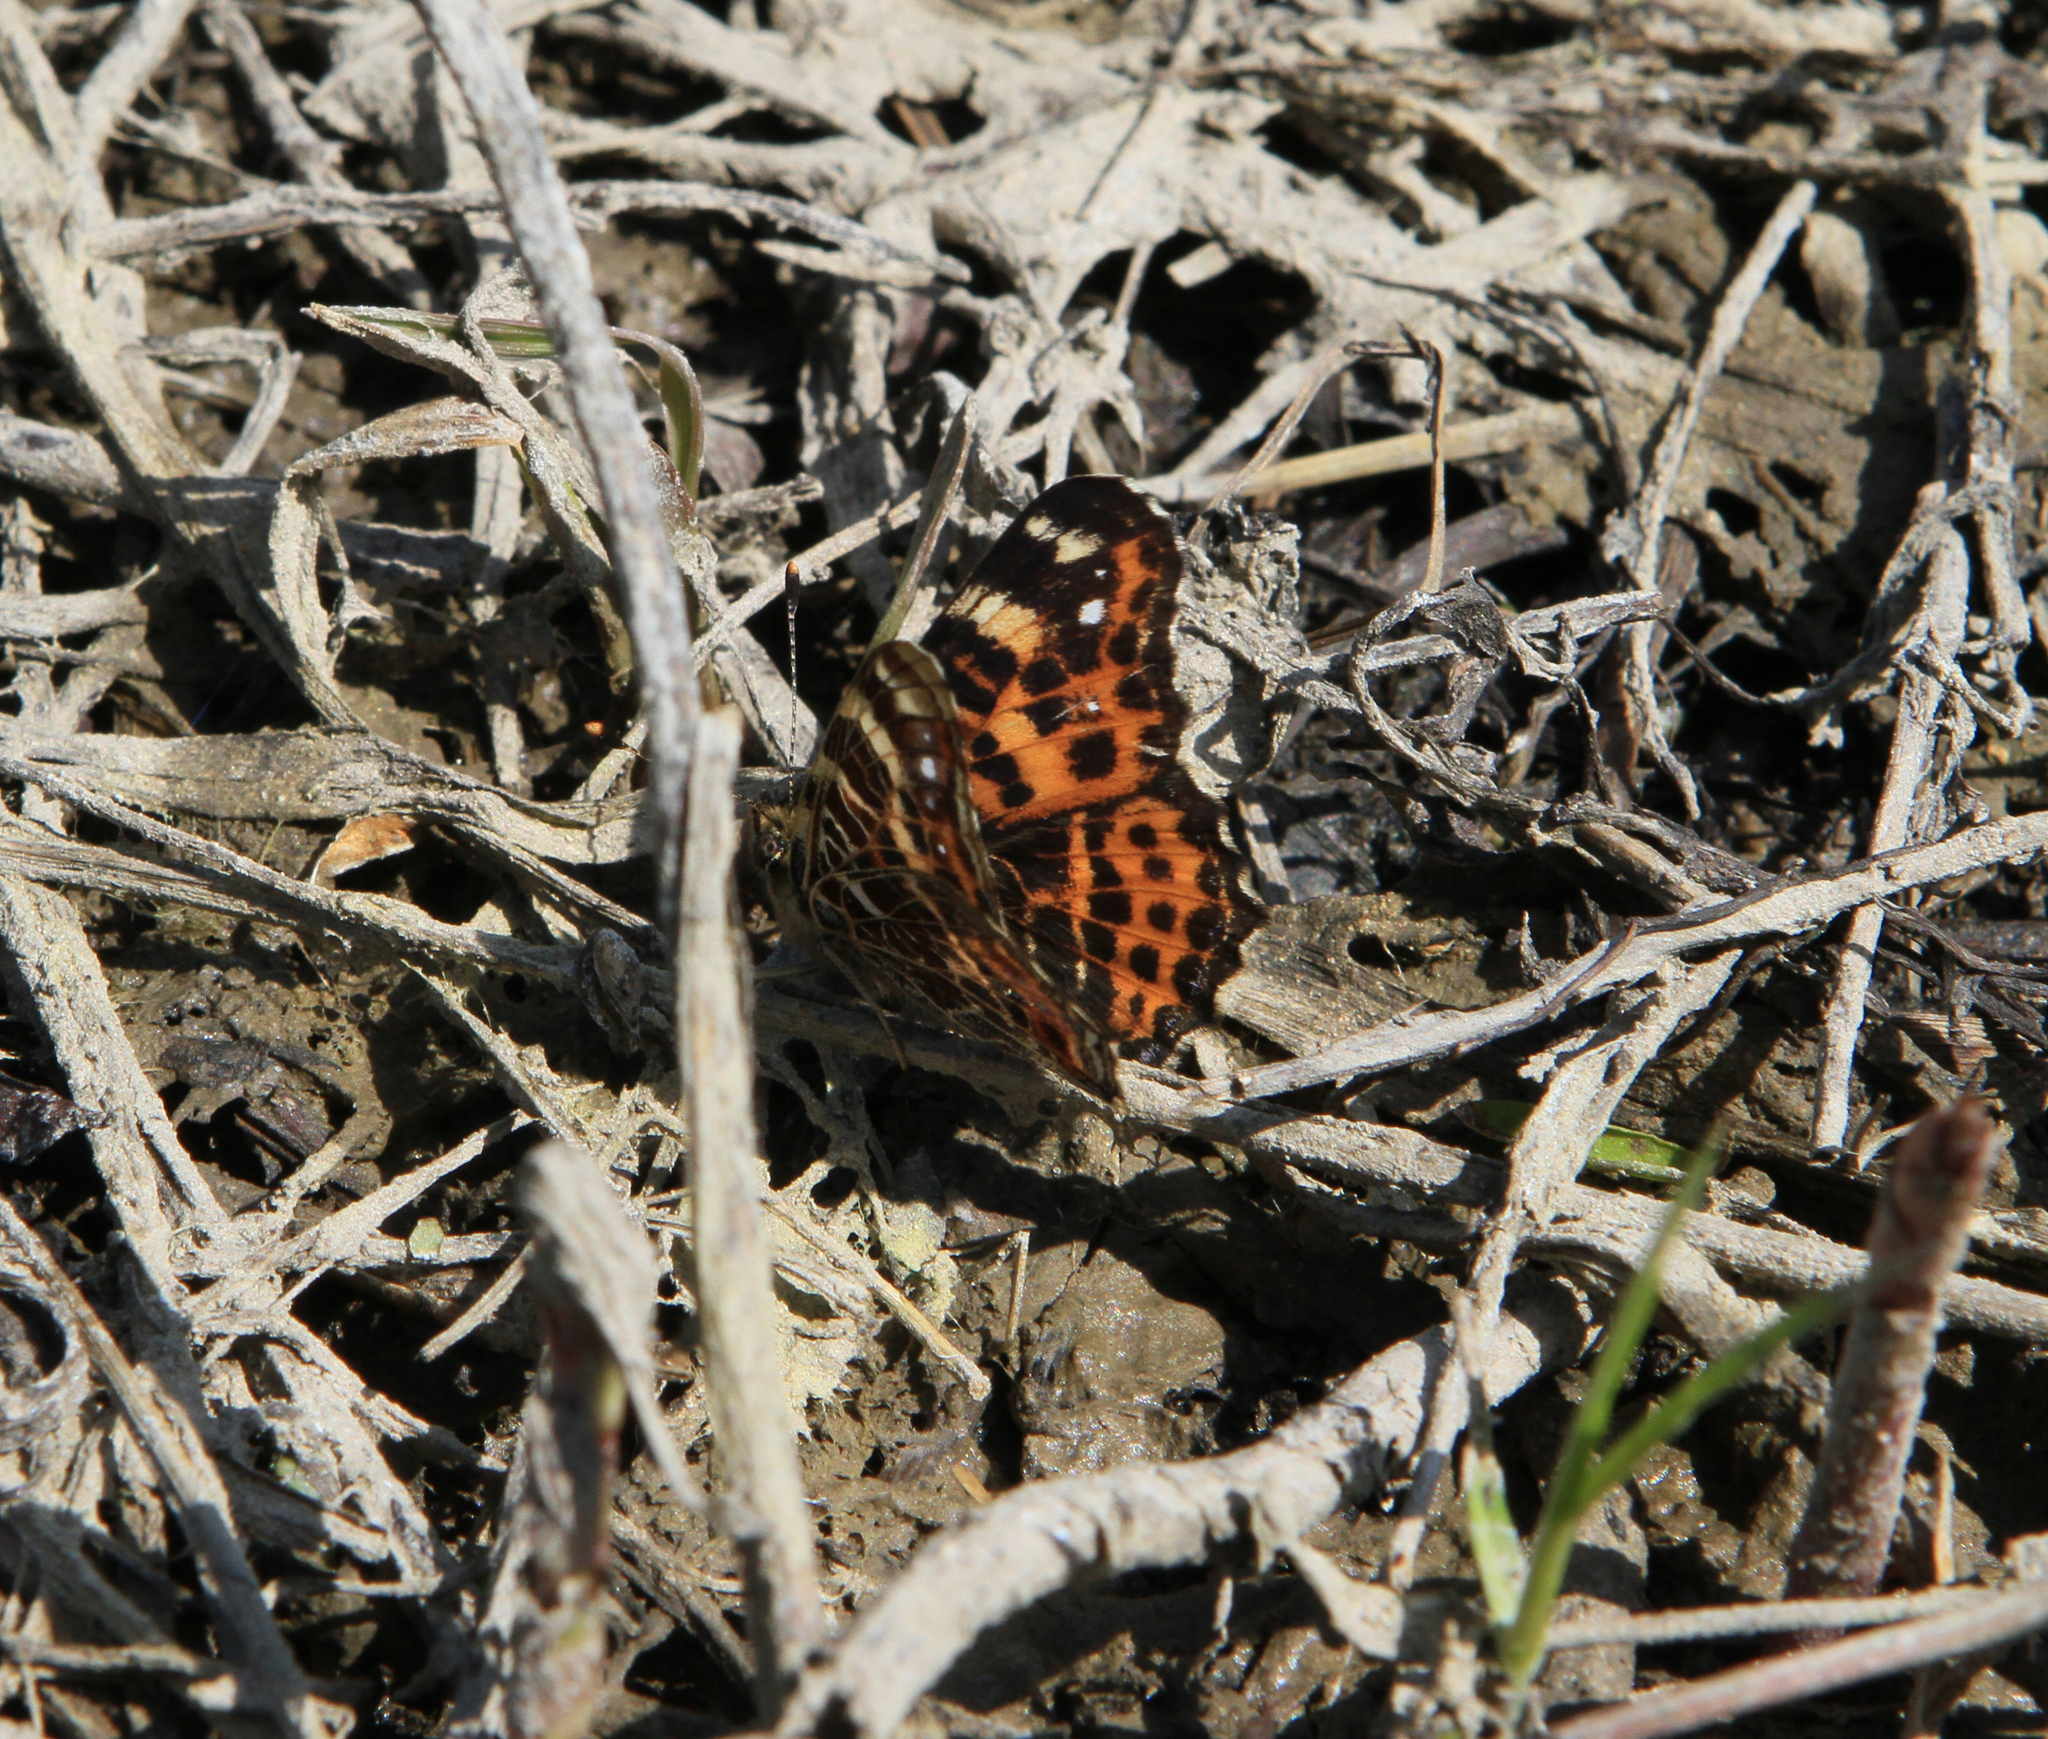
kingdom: Animalia
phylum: Arthropoda
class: Insecta
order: Lepidoptera
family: Nymphalidae
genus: Araschnia
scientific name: Araschnia levana
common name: Map butterfly
